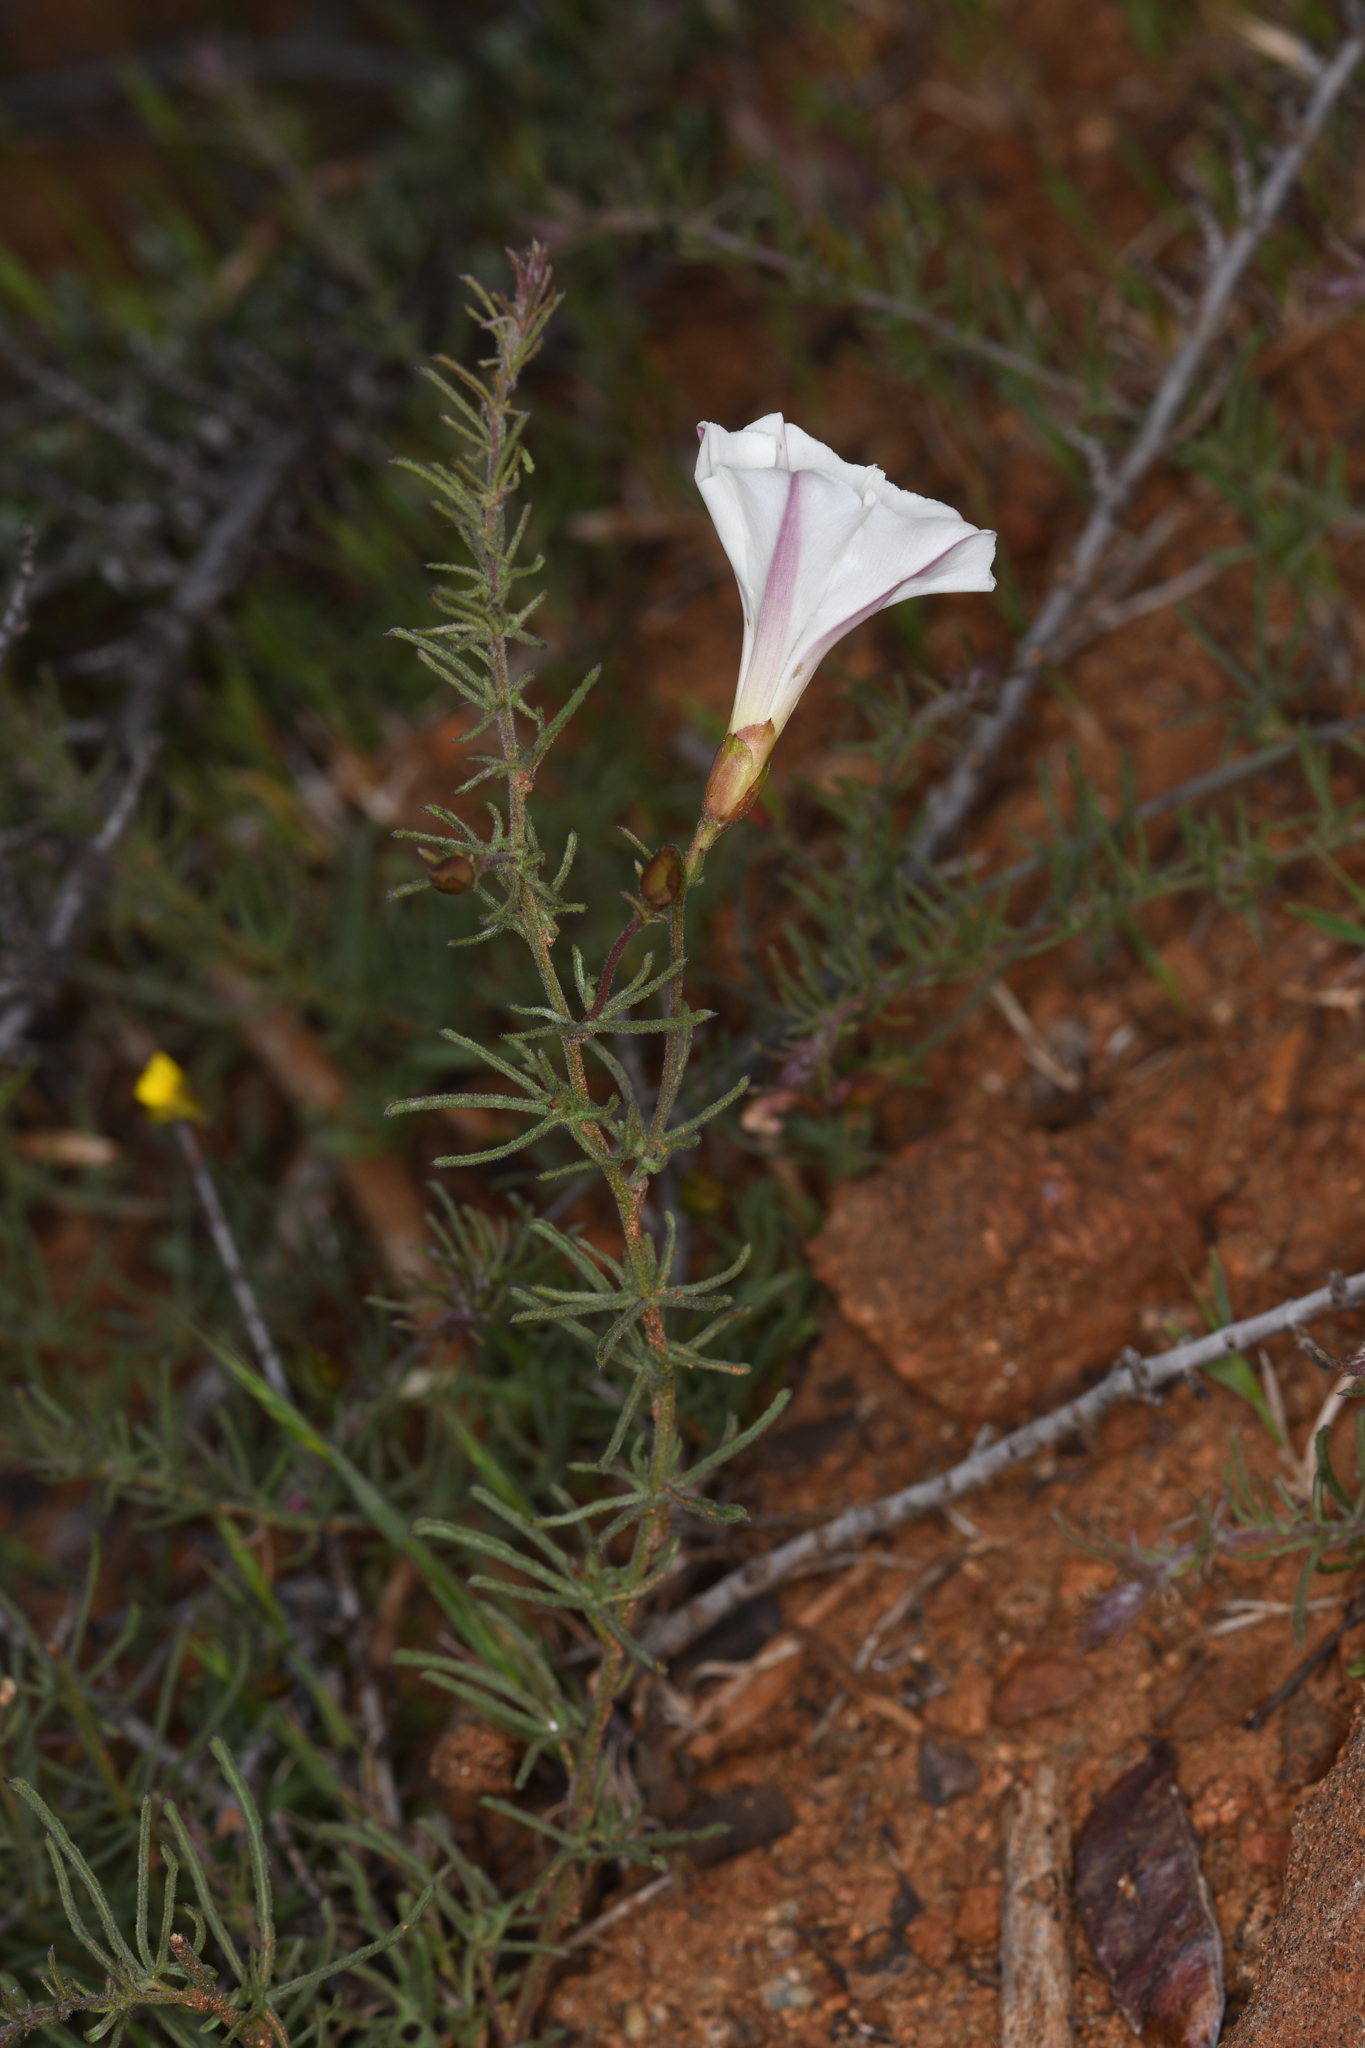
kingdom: Plantae
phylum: Tracheophyta
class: Magnoliopsida
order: Solanales
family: Convolvulaceae
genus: Calystegia
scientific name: Calystegia stebbinsii
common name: Stebbins's-morning-glory
